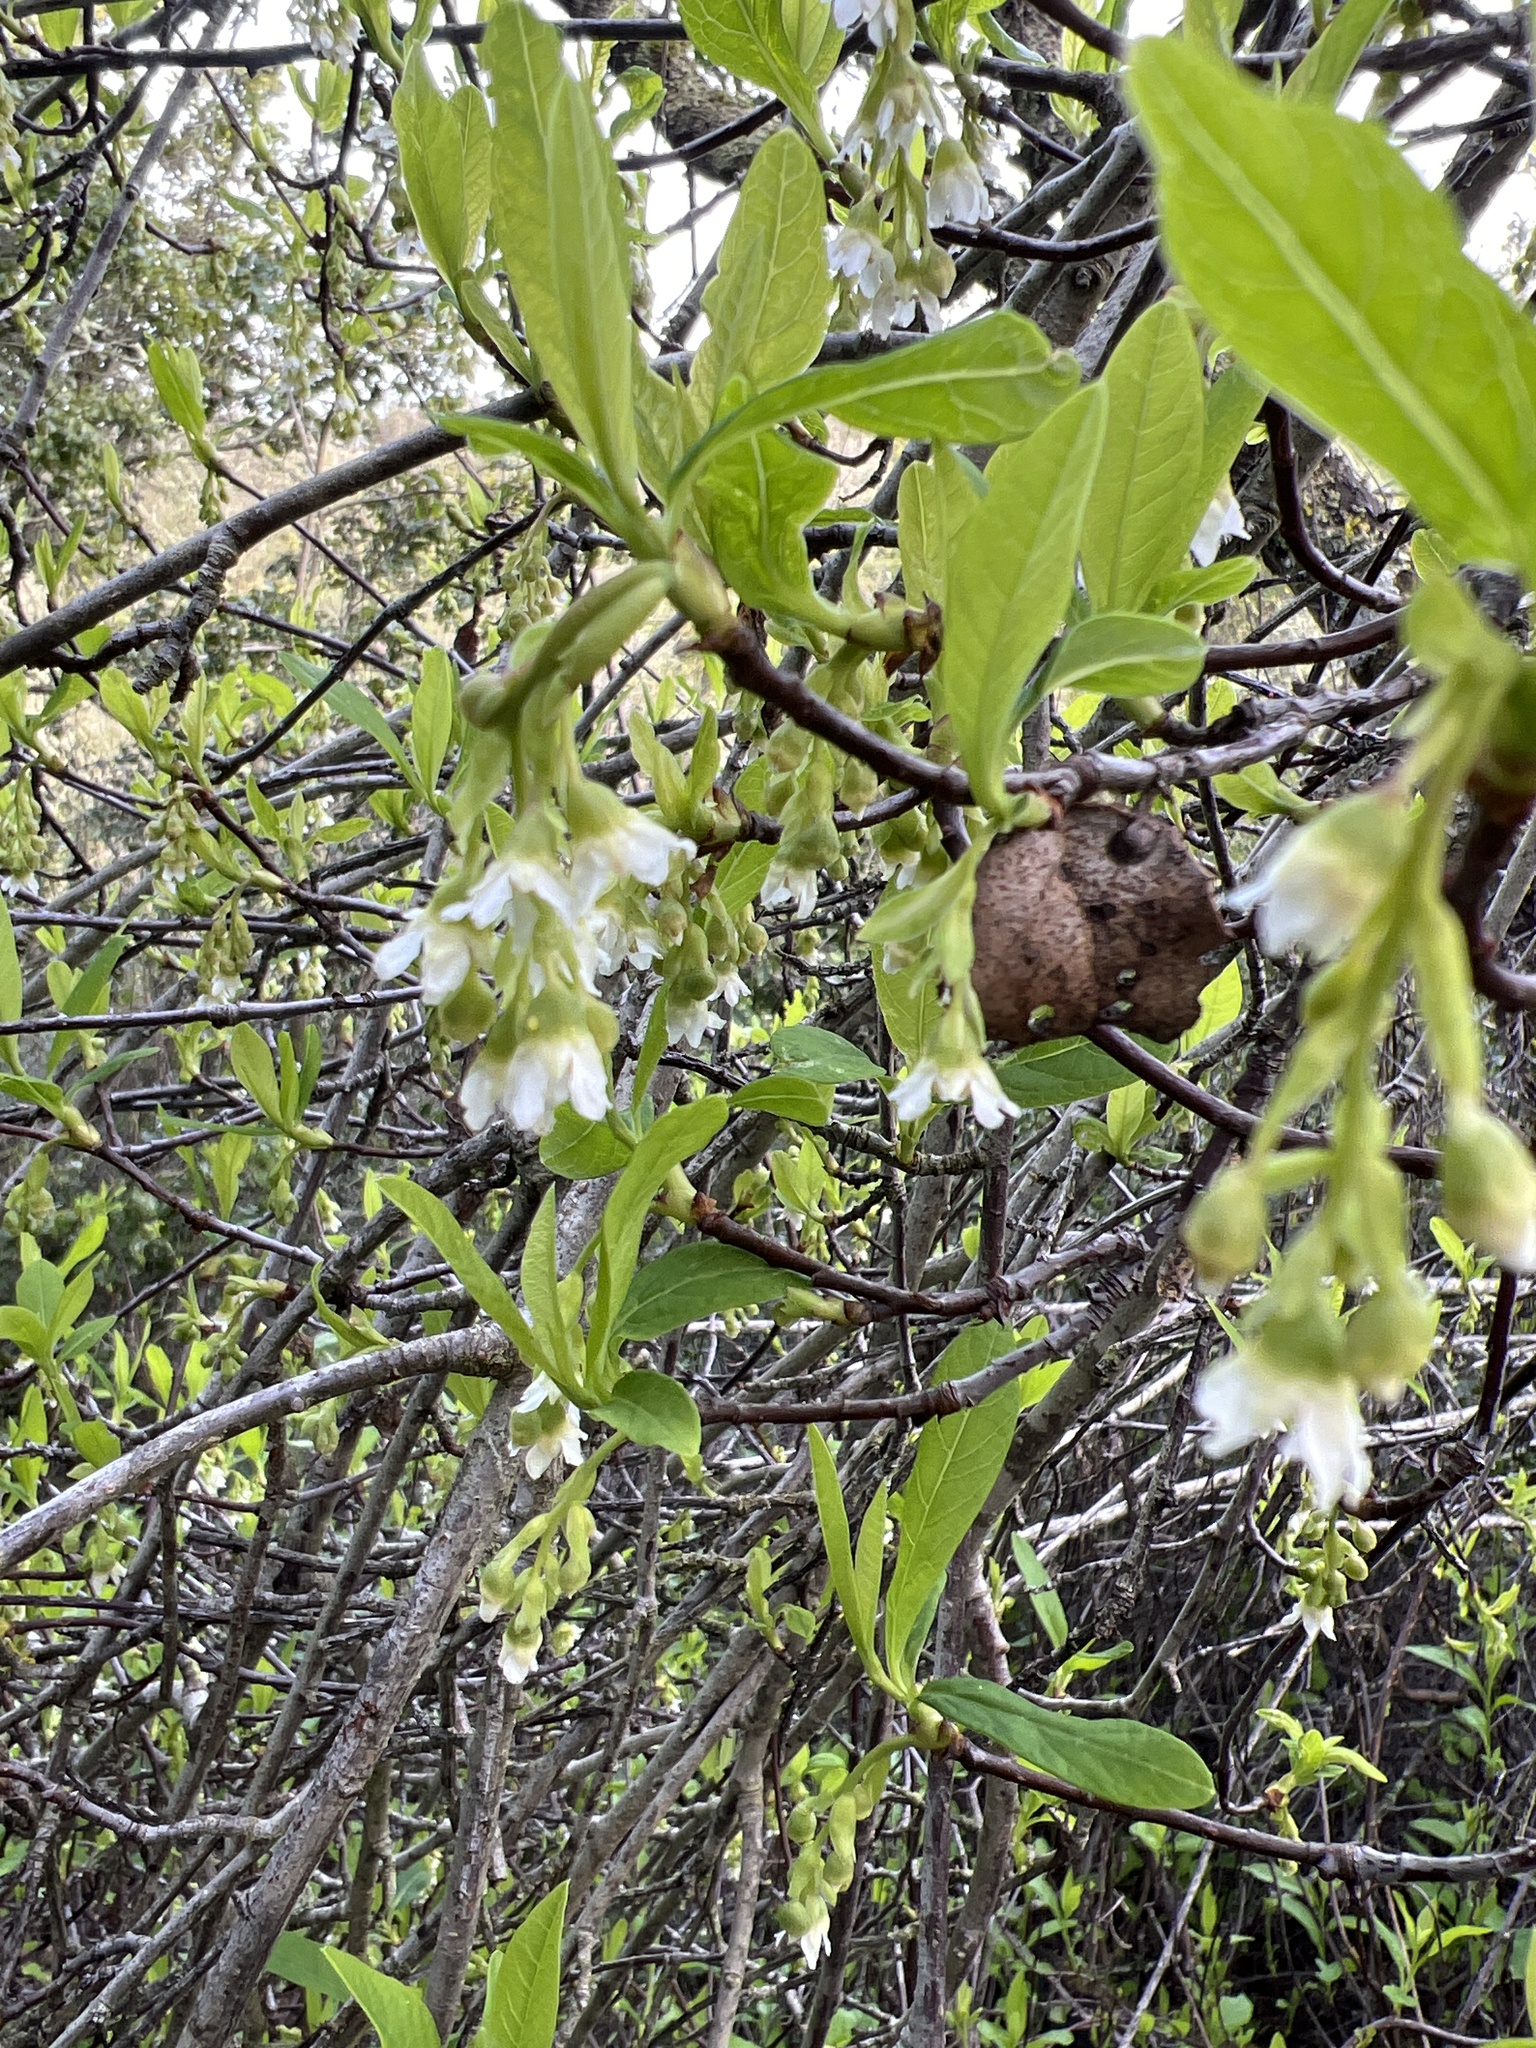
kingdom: Plantae
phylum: Tracheophyta
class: Magnoliopsida
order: Rosales
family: Rosaceae
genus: Oemleria
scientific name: Oemleria cerasiformis
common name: Osoberry
